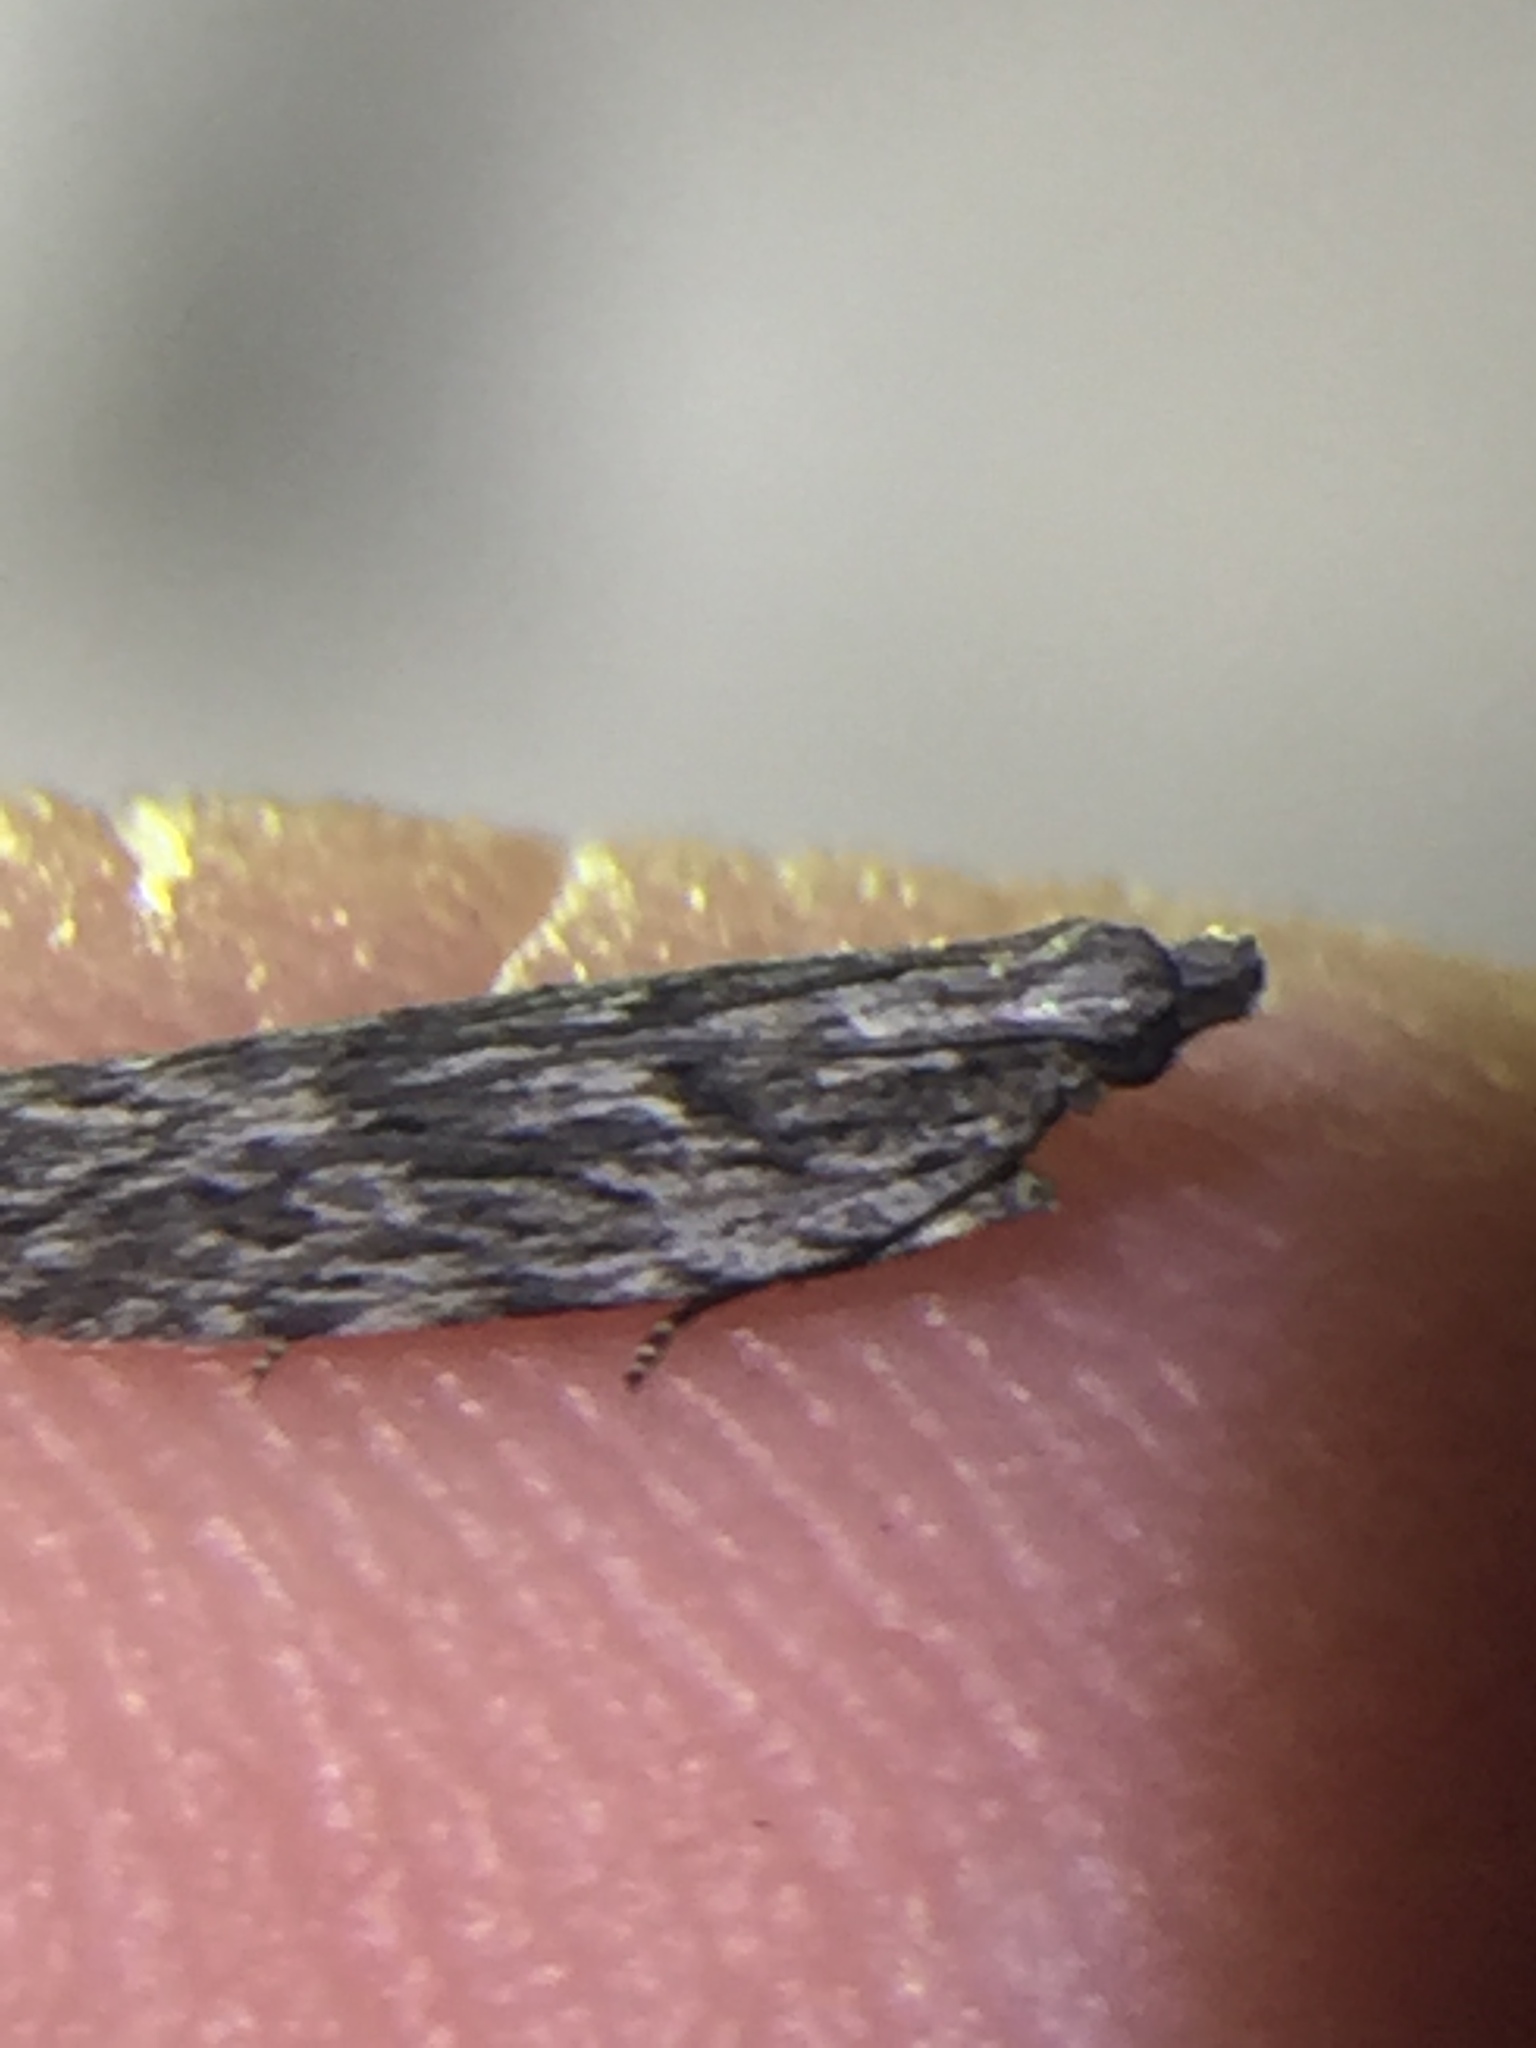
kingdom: Animalia
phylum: Arthropoda
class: Insecta
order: Lepidoptera
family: Gelechiidae
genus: Anarsia
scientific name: Anarsia dryinopa
